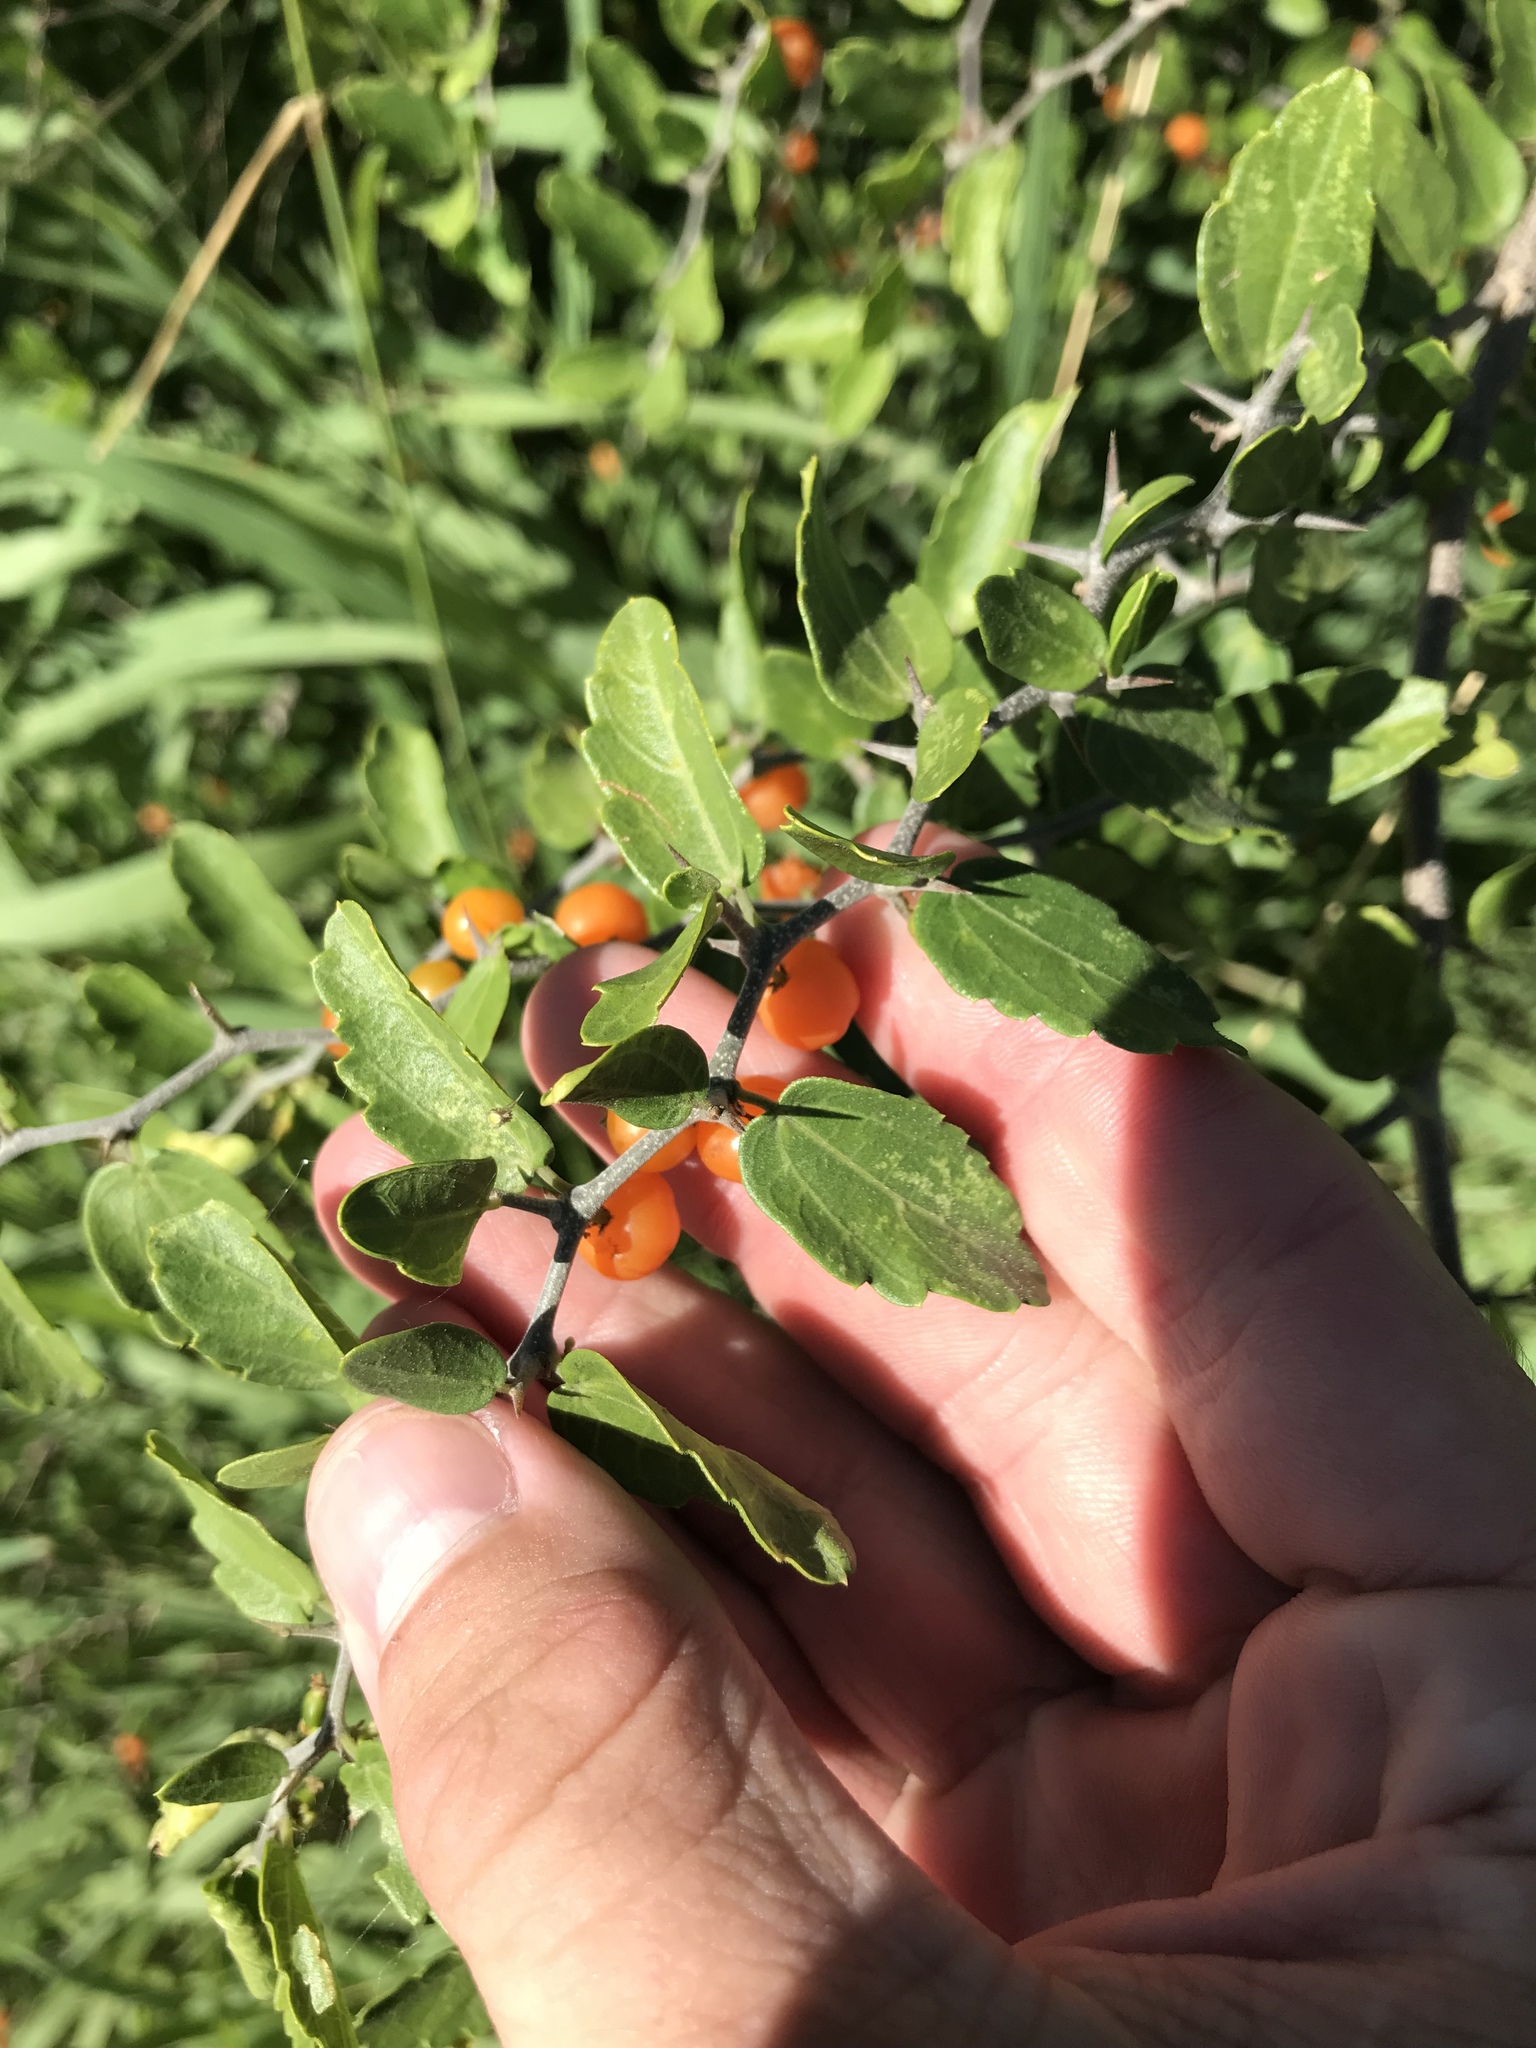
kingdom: Plantae
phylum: Tracheophyta
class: Magnoliopsida
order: Rosales
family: Cannabaceae
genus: Celtis
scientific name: Celtis pallida
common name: Desert hackberry
